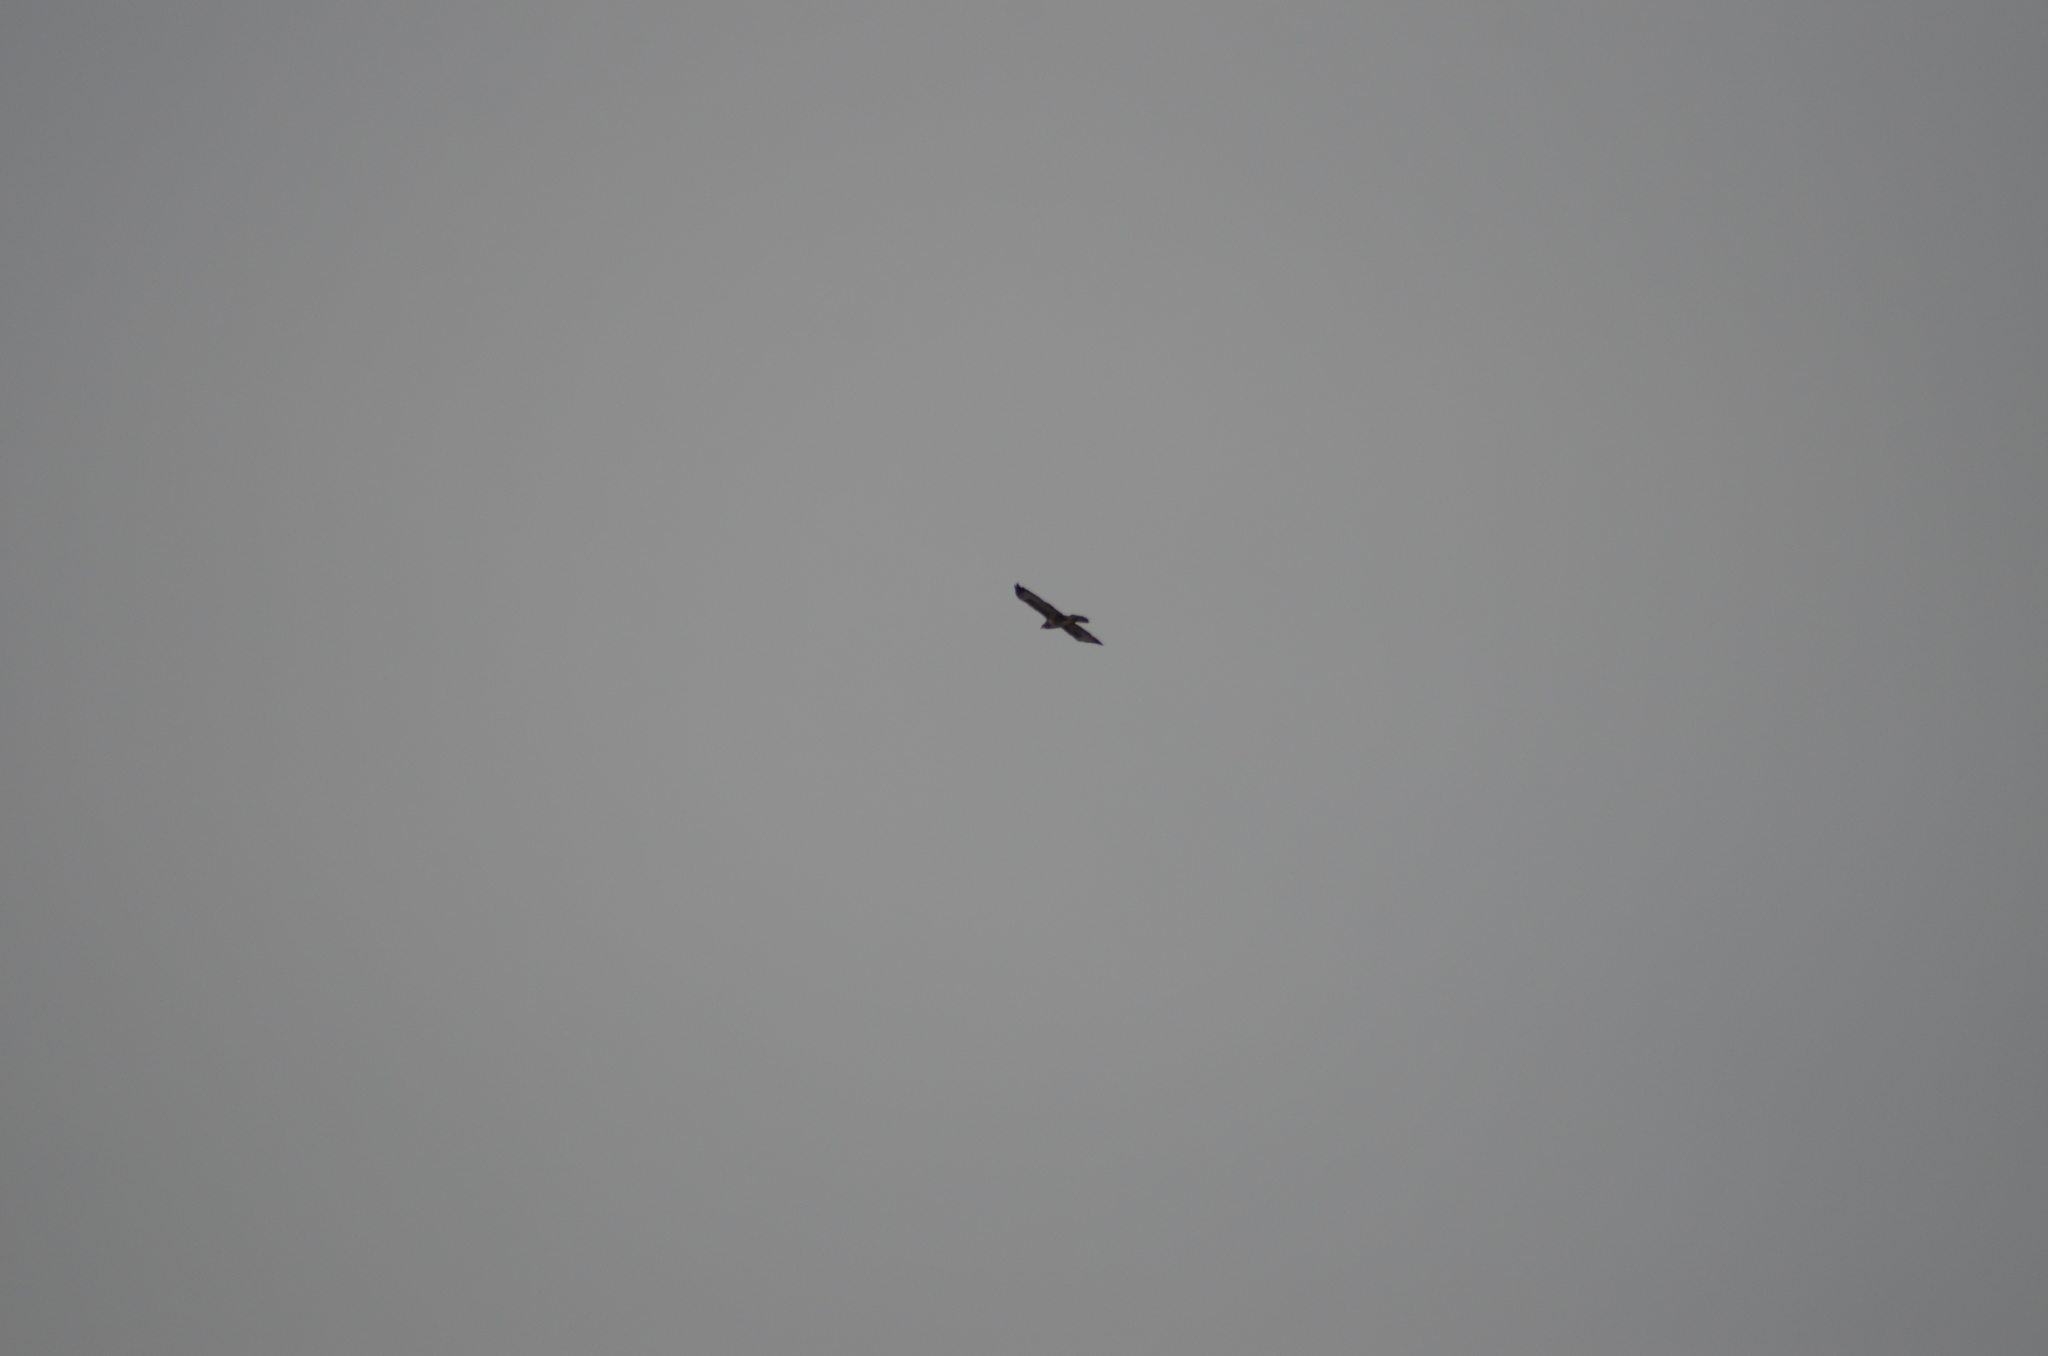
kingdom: Animalia
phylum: Chordata
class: Aves
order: Accipitriformes
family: Accipitridae
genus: Buteo
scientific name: Buteo buteo
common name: Common buzzard
